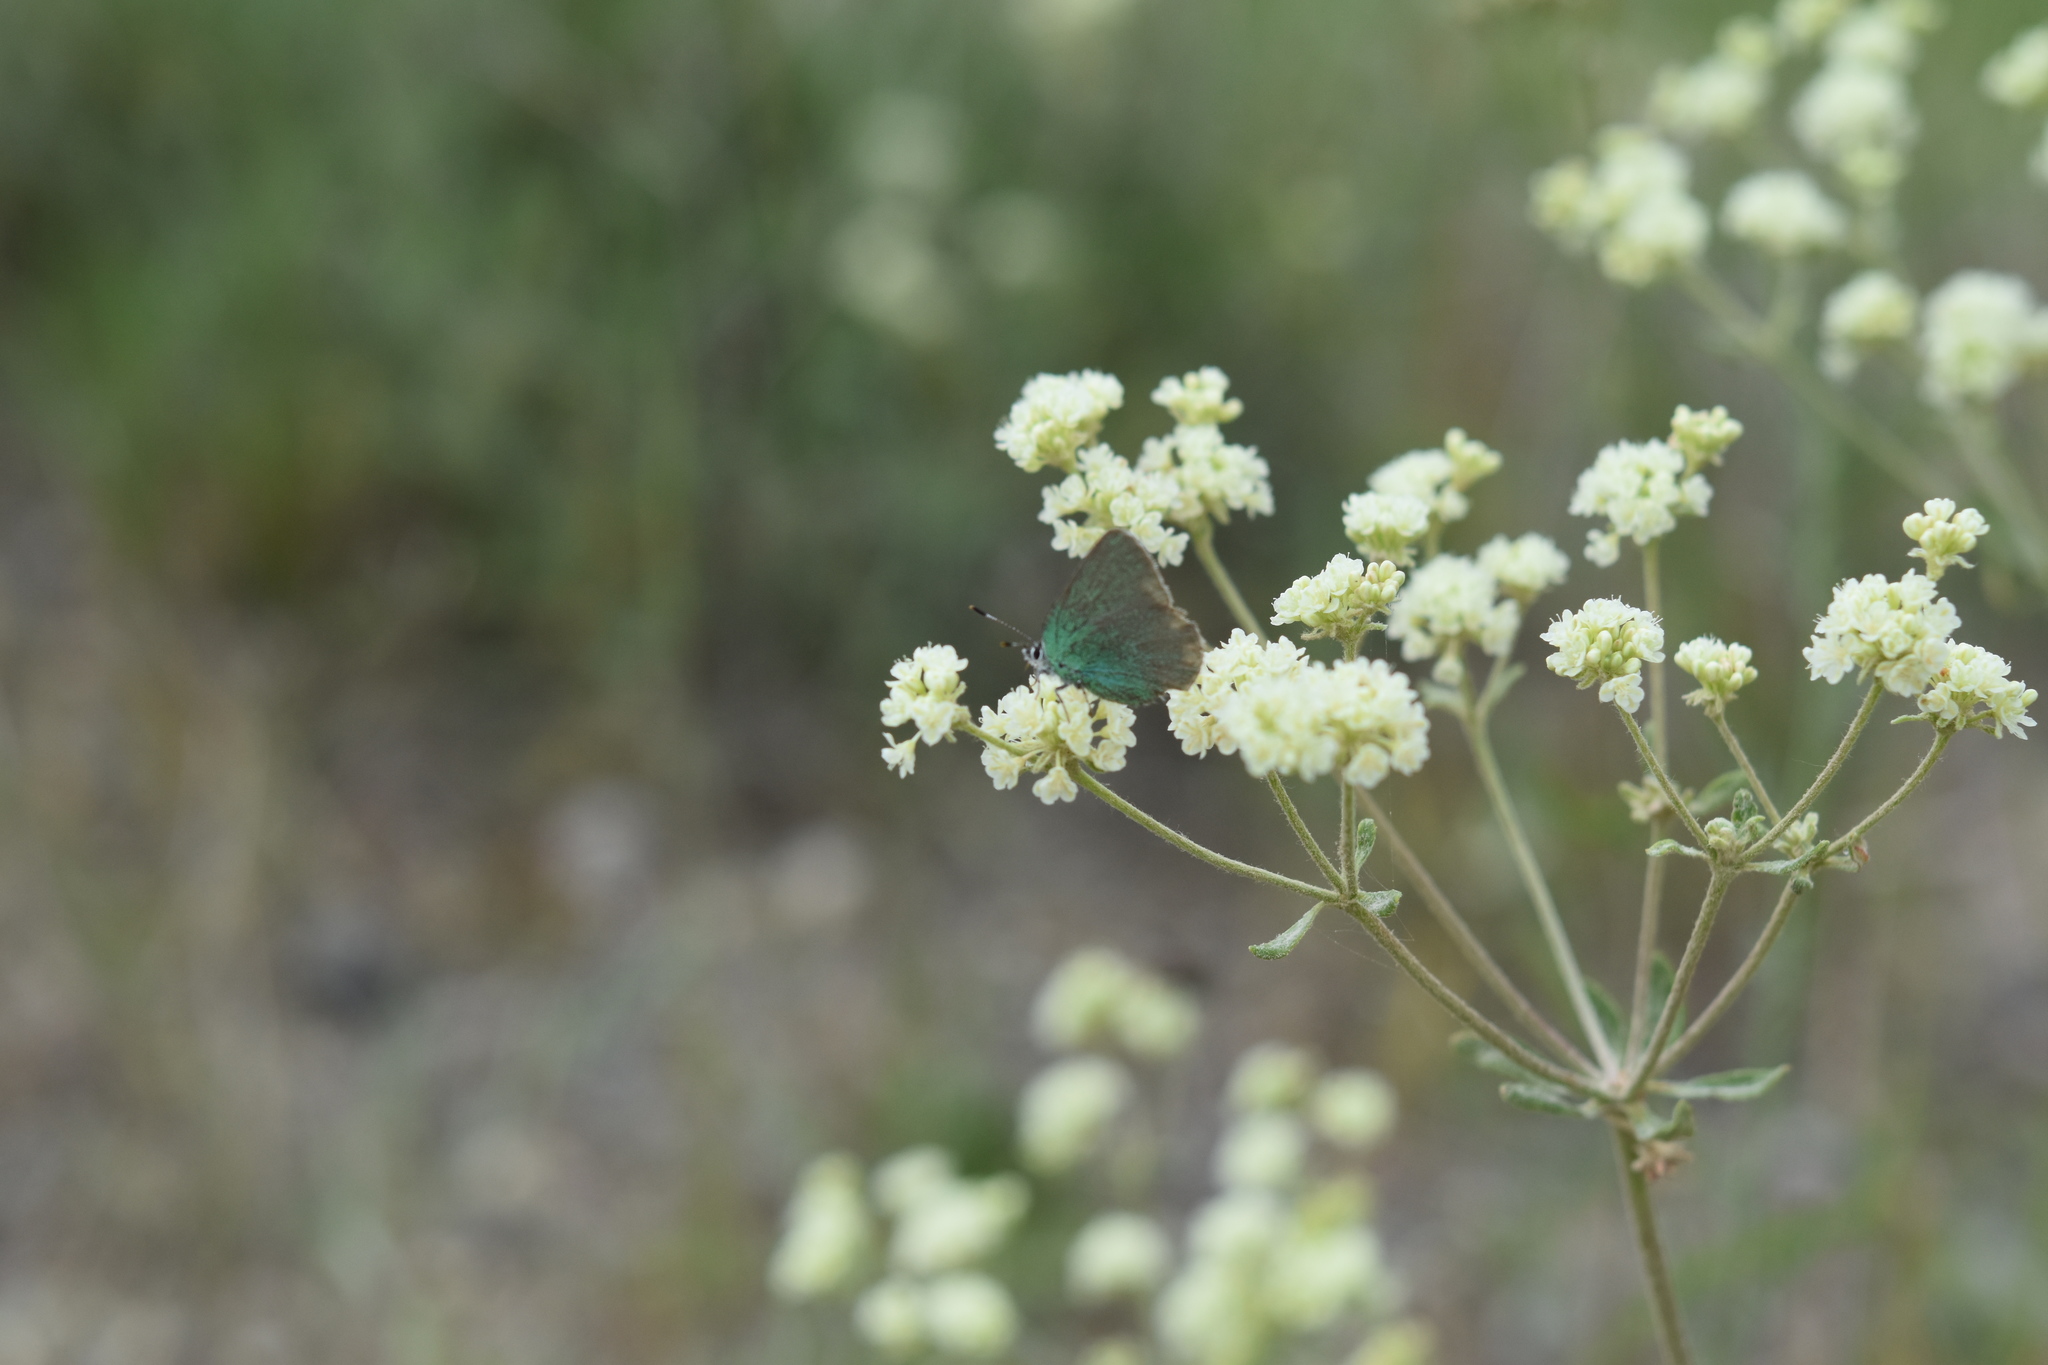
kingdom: Animalia
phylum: Arthropoda
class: Insecta
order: Lepidoptera
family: Lycaenidae
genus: Callophrys
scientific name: Callophrys affinis
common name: Western green hairstreak
